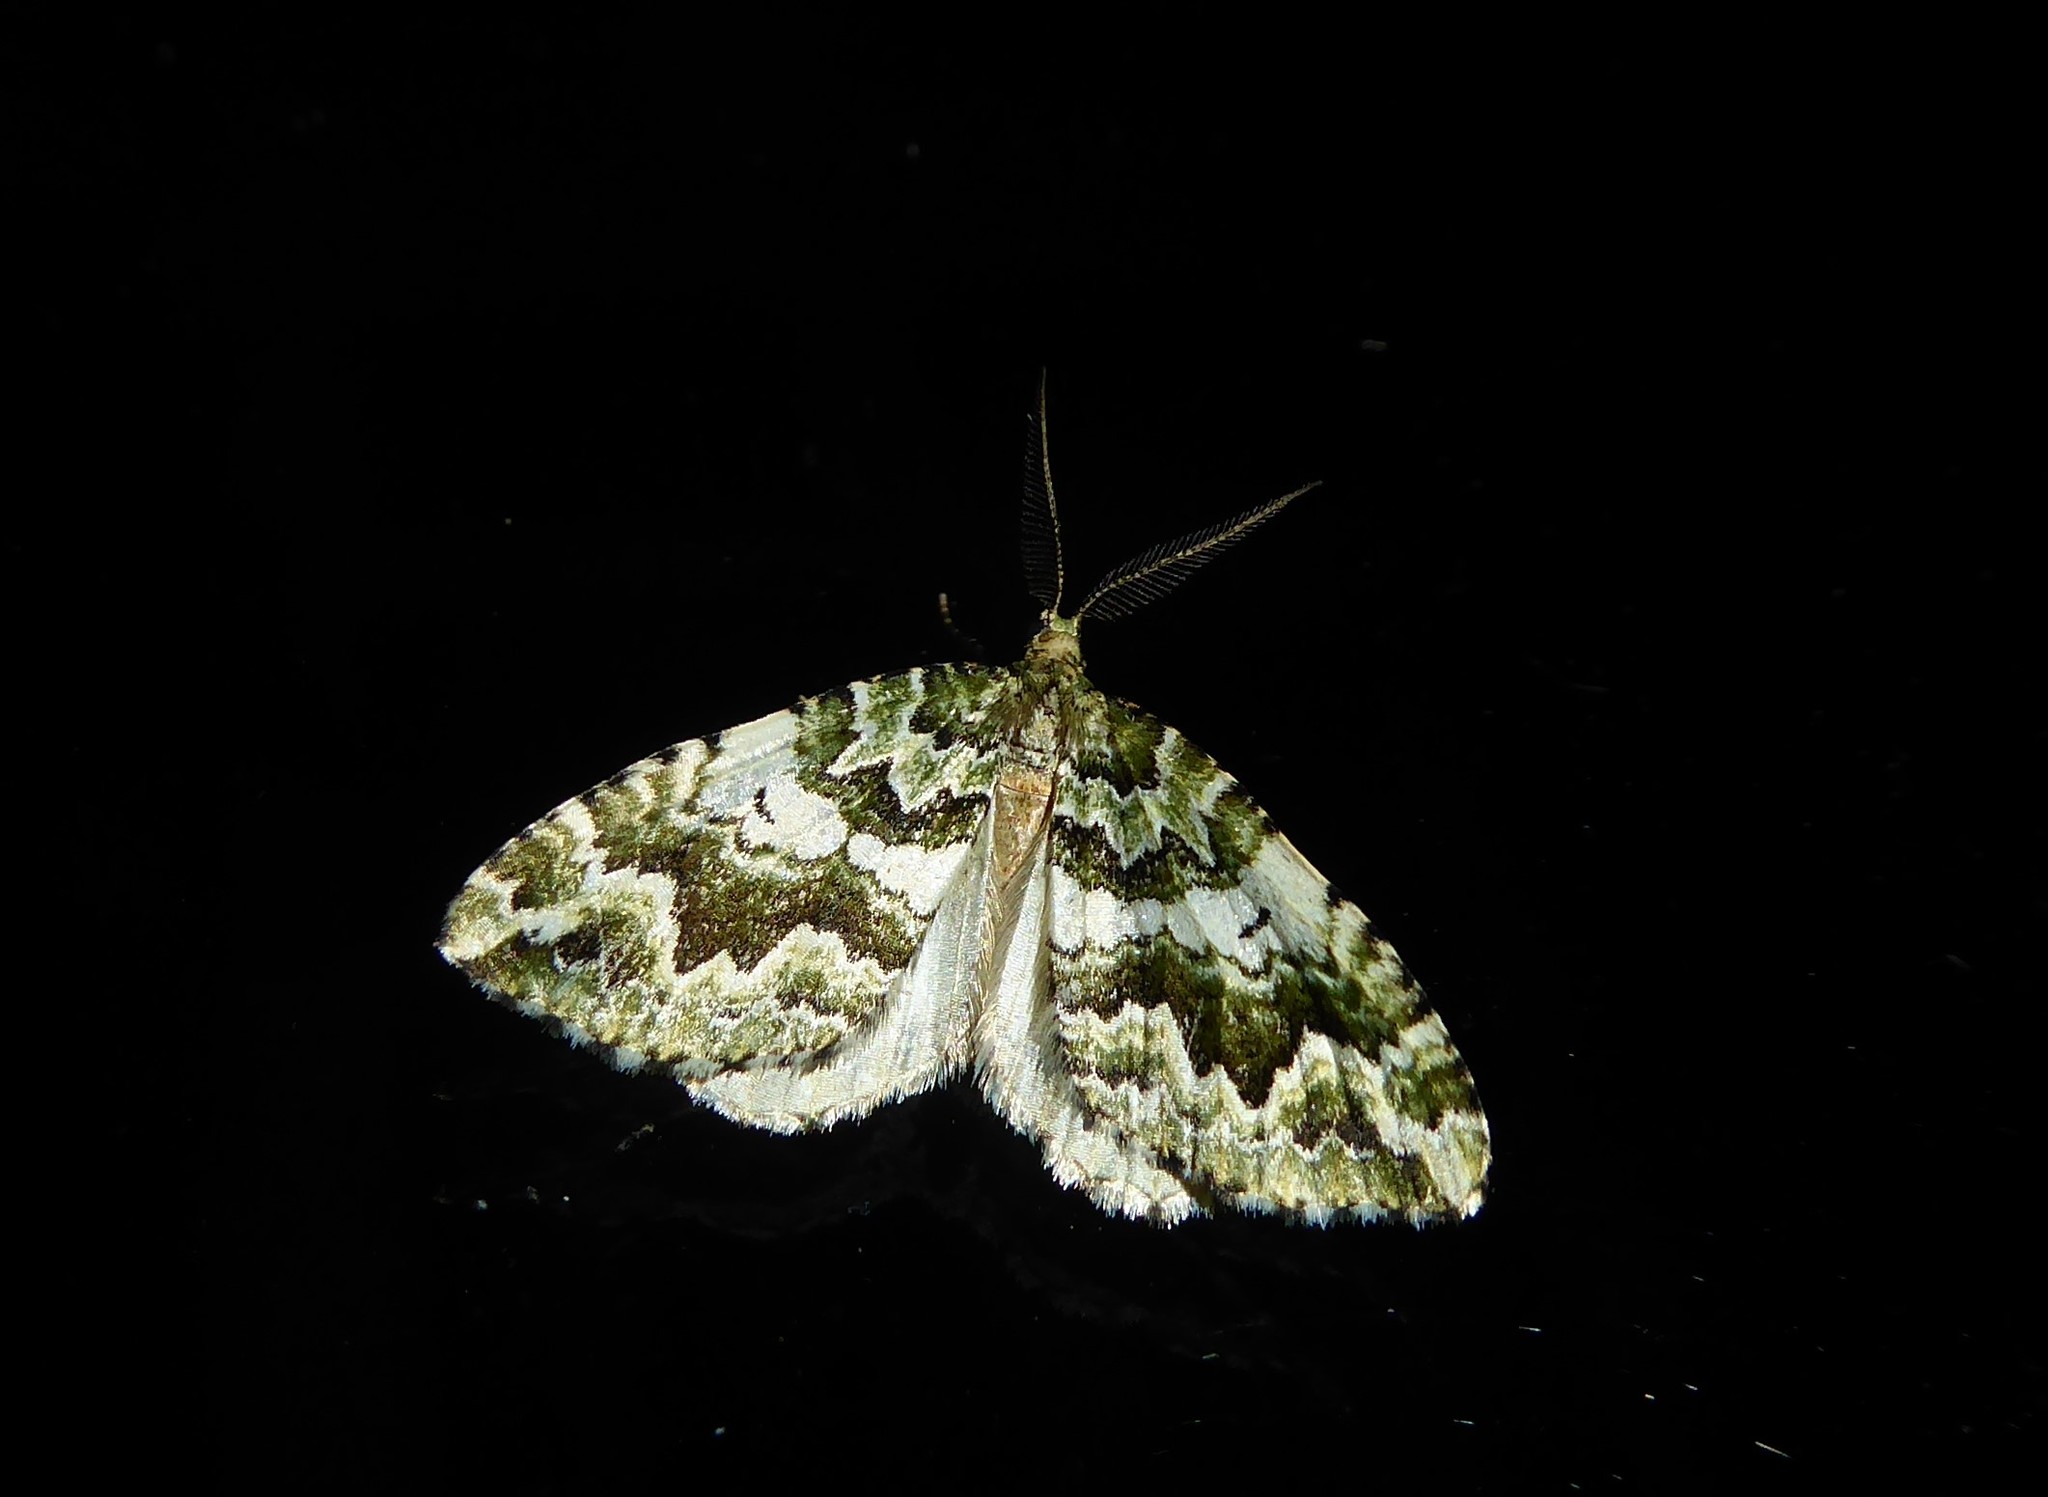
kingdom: Animalia
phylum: Arthropoda
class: Insecta
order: Lepidoptera
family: Geometridae
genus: Asaphodes
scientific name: Asaphodes beata
